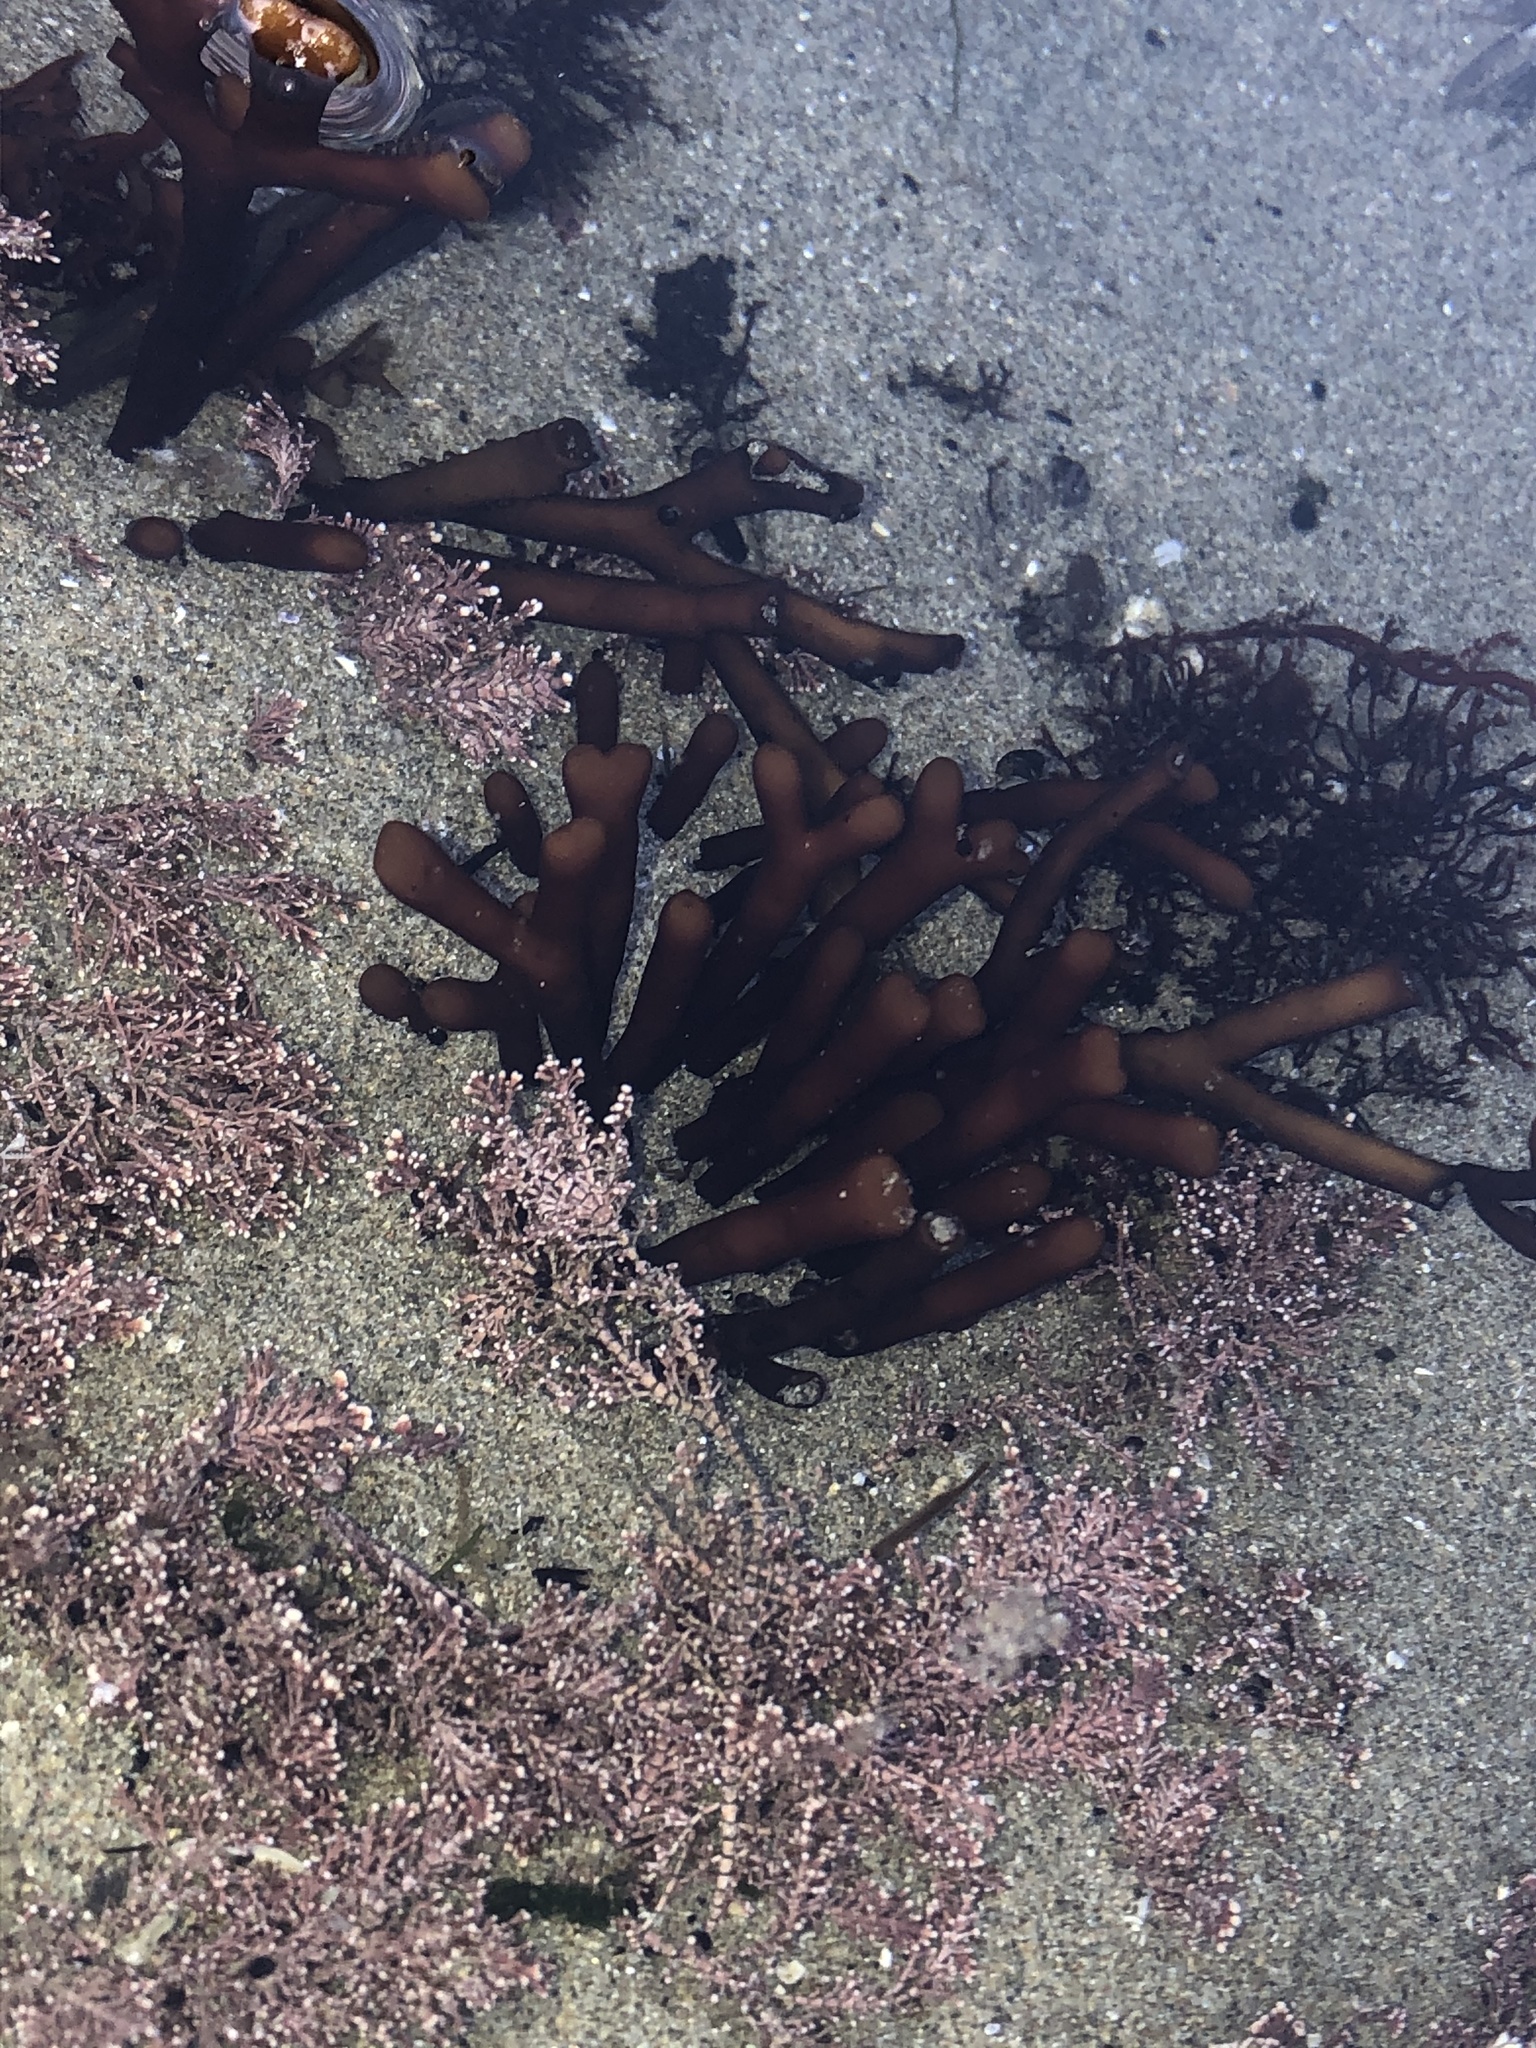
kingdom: Plantae
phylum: Rhodophyta
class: Florideophyceae
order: Gigartinales
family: Phyllophoraceae
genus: Ahnfeltiopsis
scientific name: Ahnfeltiopsis linearis
